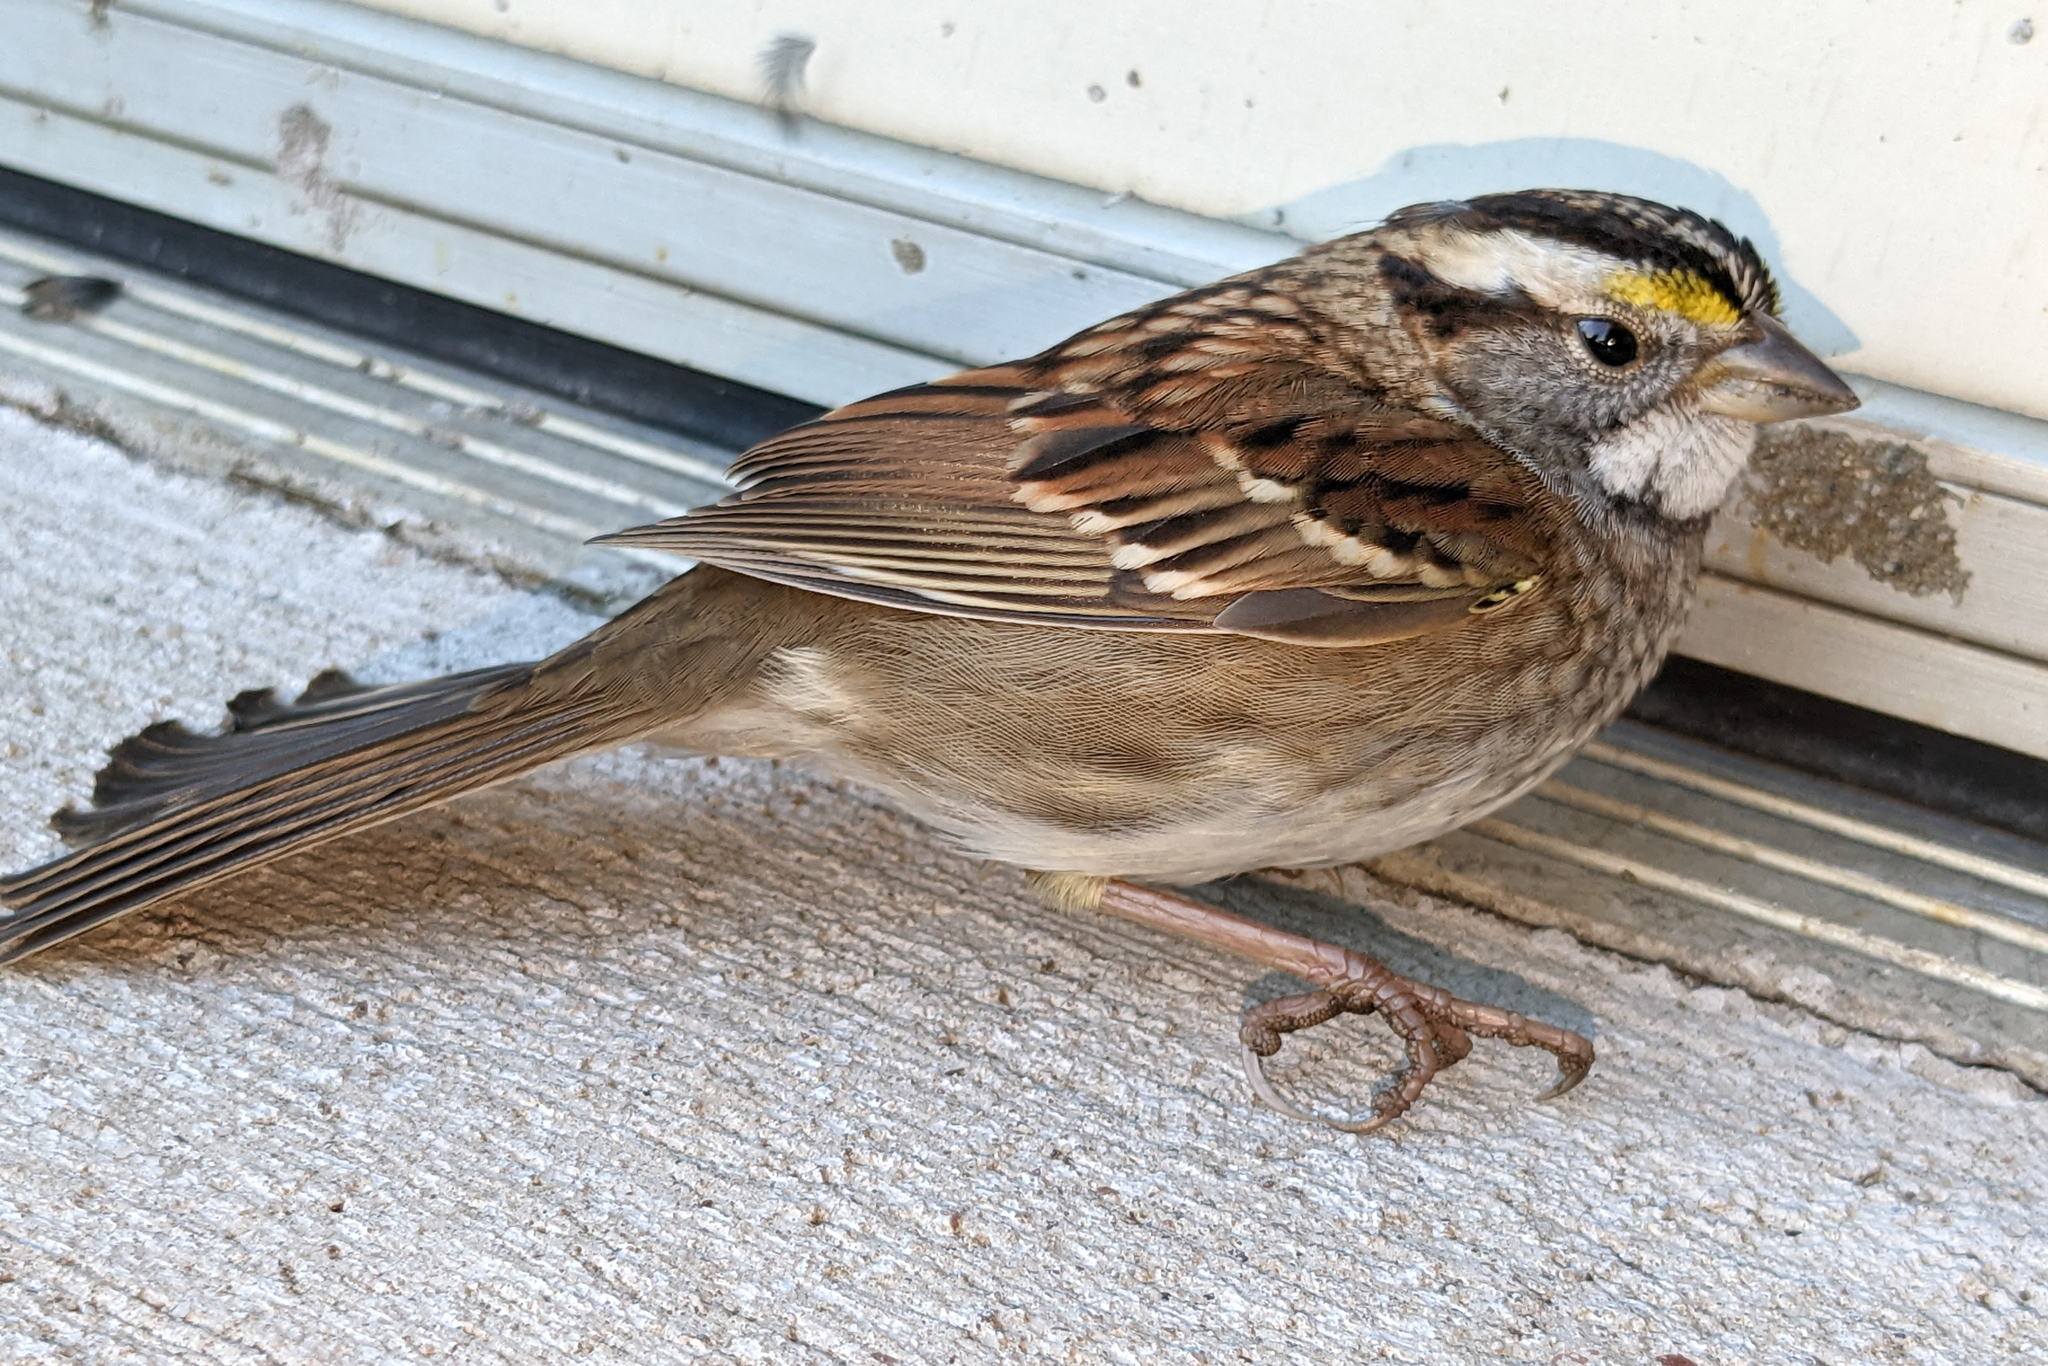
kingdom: Animalia
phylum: Chordata
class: Aves
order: Passeriformes
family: Passerellidae
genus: Zonotrichia
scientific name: Zonotrichia albicollis
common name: White-throated sparrow
